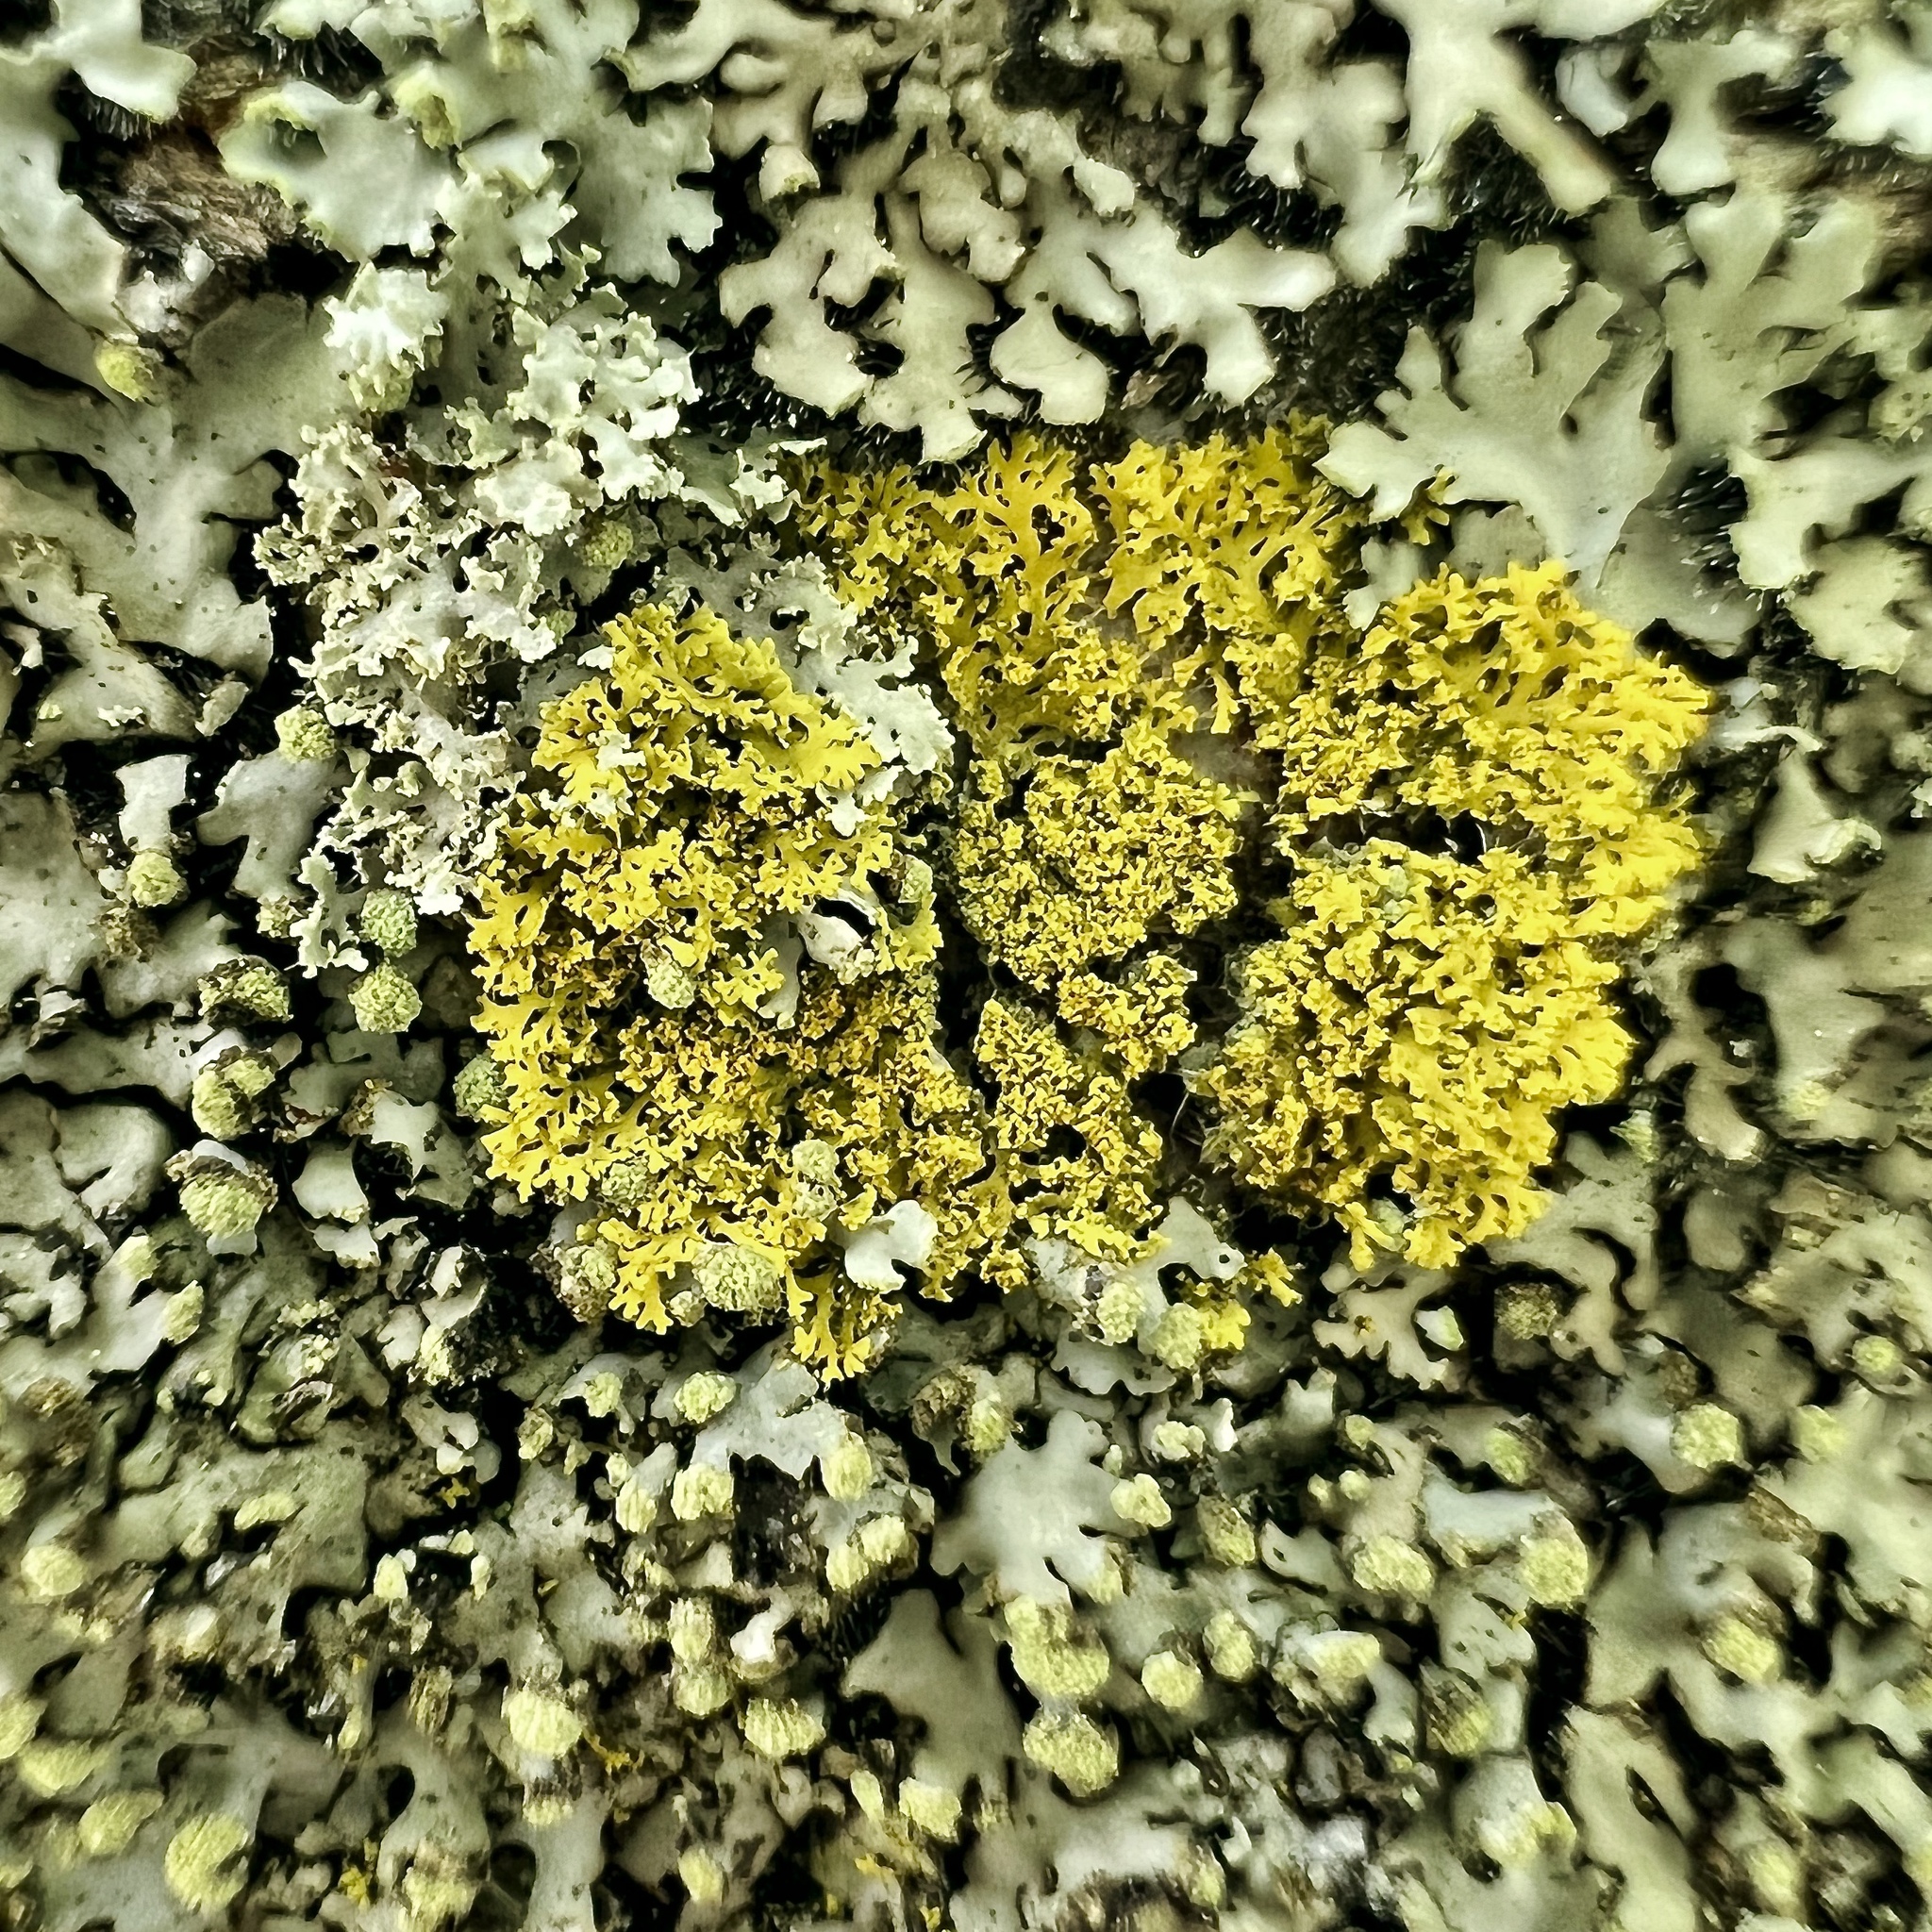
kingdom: Fungi
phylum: Ascomycota
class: Candelariomycetes
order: Candelariales
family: Candelariaceae
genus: Candelaria
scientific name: Candelaria concolor
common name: Candleflame lichen
